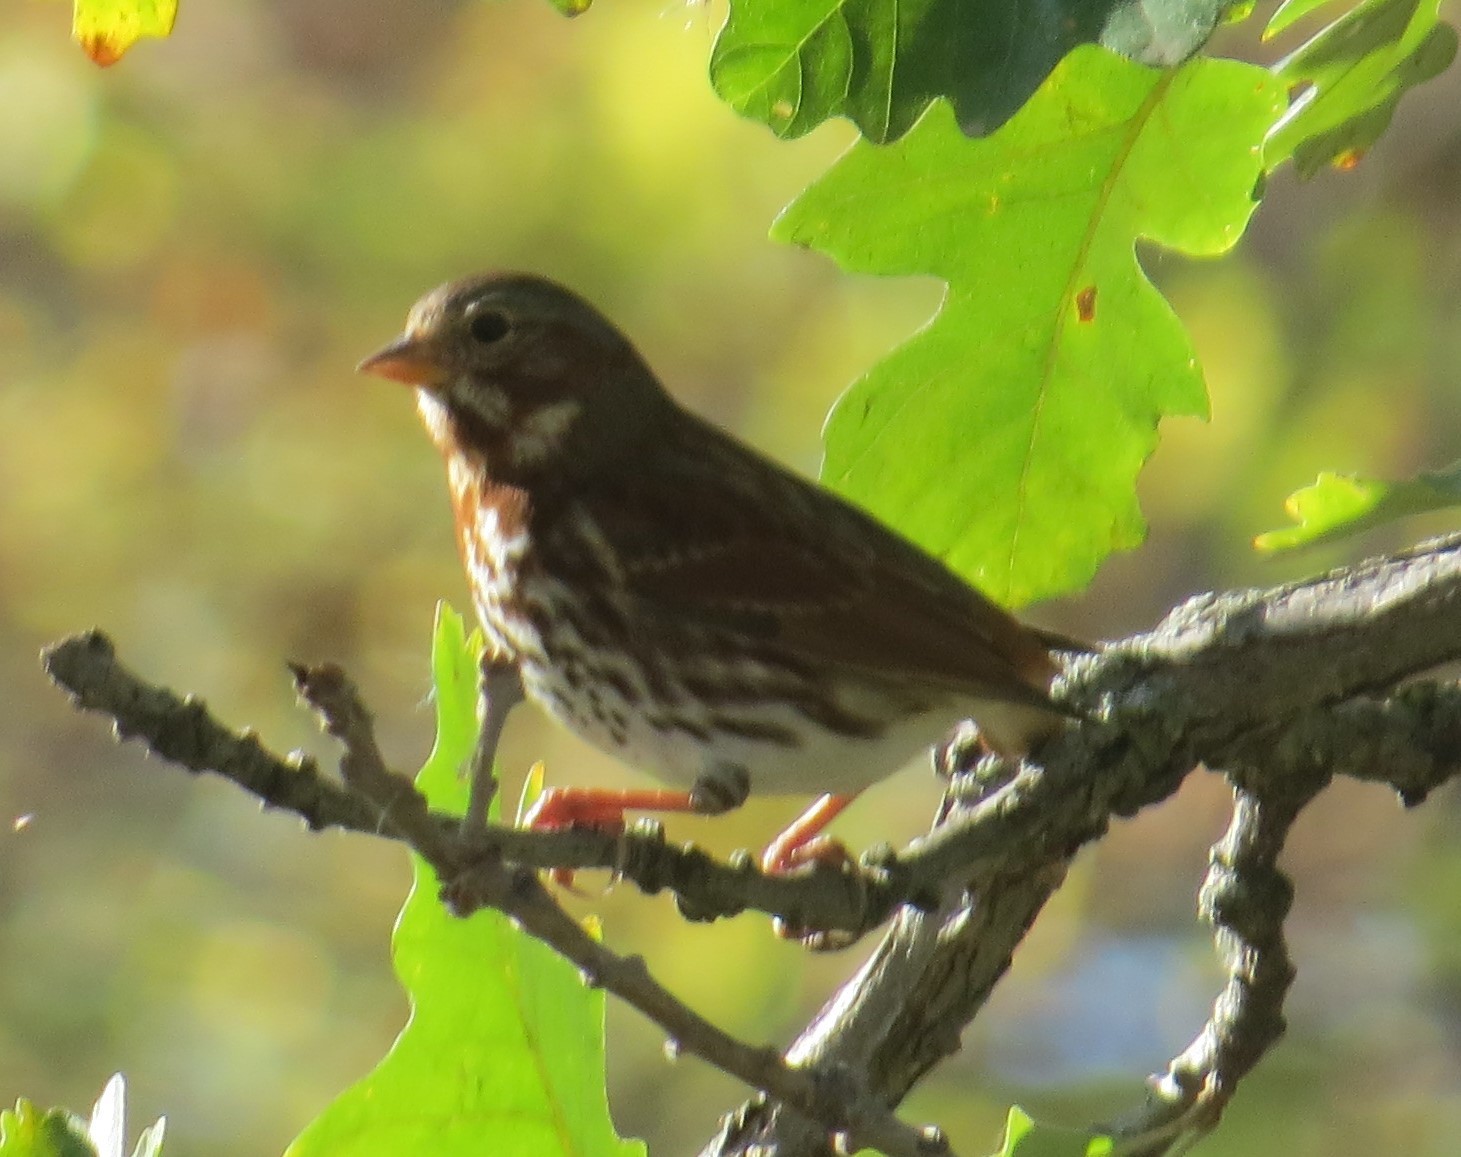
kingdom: Animalia
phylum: Chordata
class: Aves
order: Passeriformes
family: Passerellidae
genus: Passerella
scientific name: Passerella iliaca
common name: Fox sparrow
